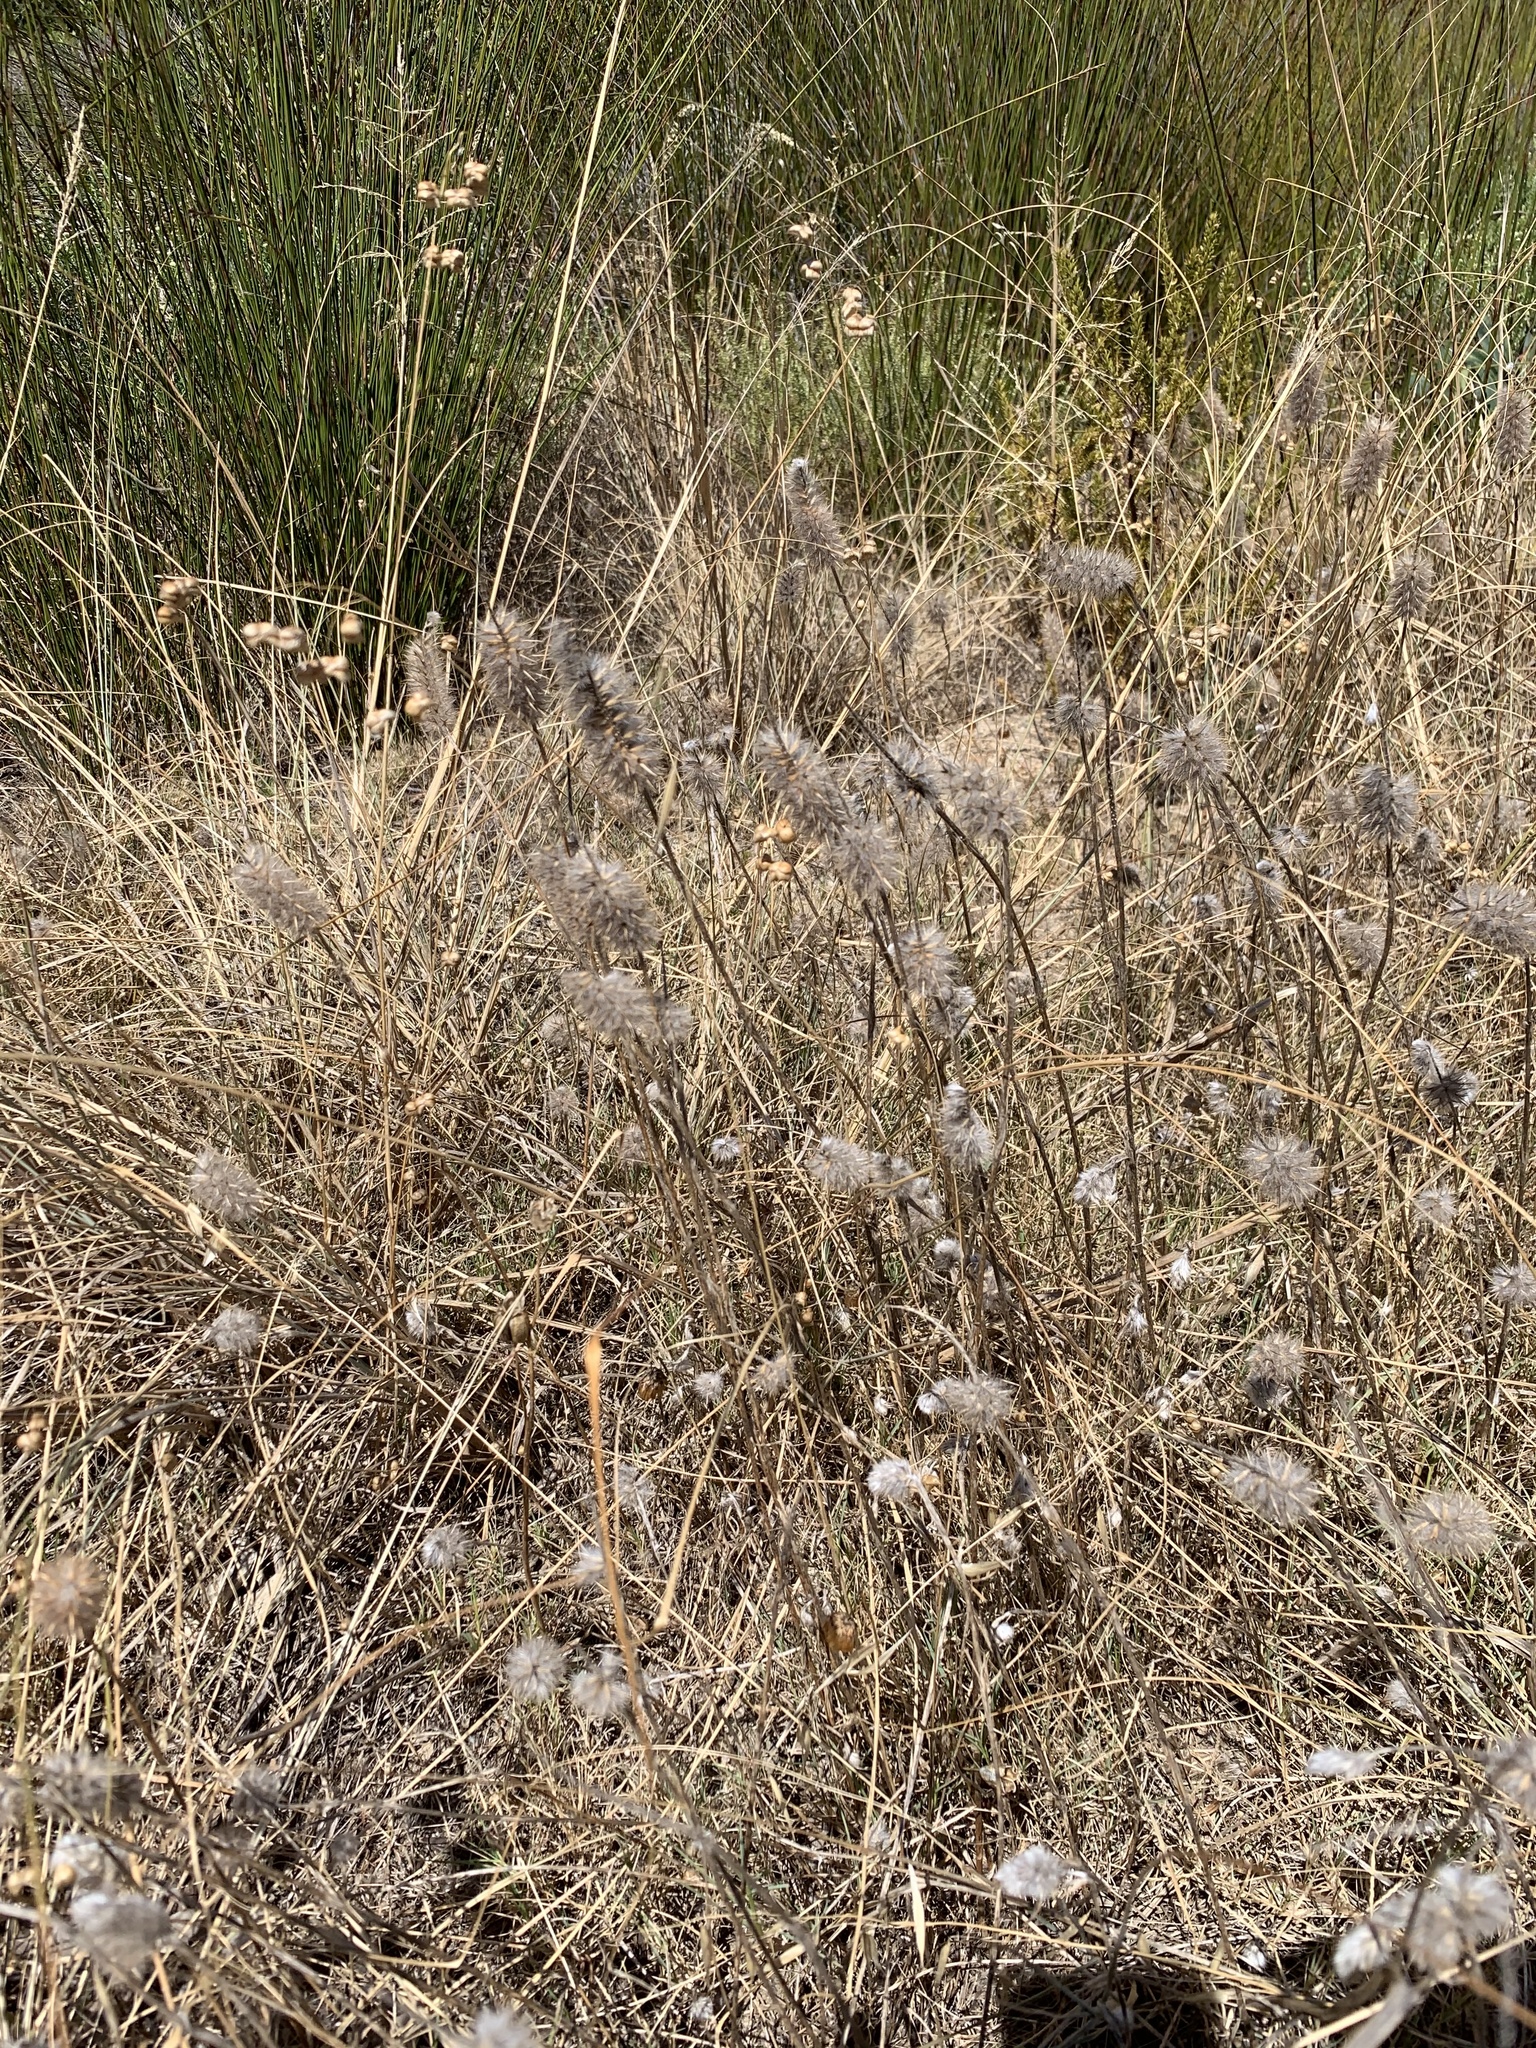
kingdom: Plantae
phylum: Tracheophyta
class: Magnoliopsida
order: Fabales
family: Fabaceae
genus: Trifolium
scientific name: Trifolium angustifolium
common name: Narrow clover
